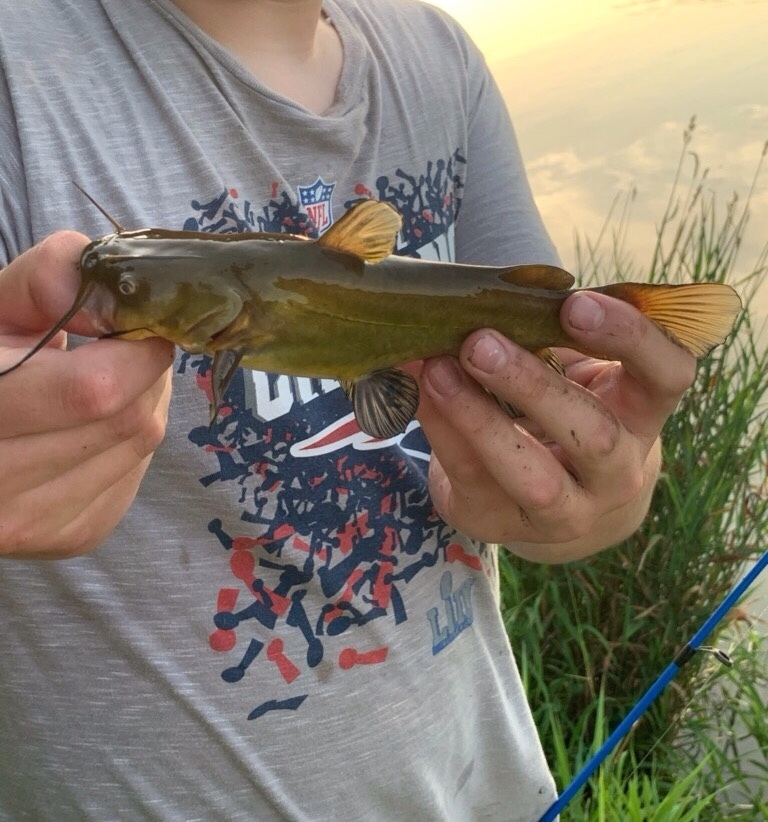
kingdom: Animalia
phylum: Chordata
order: Siluriformes
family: Ictaluridae
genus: Ameiurus
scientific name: Ameiurus
